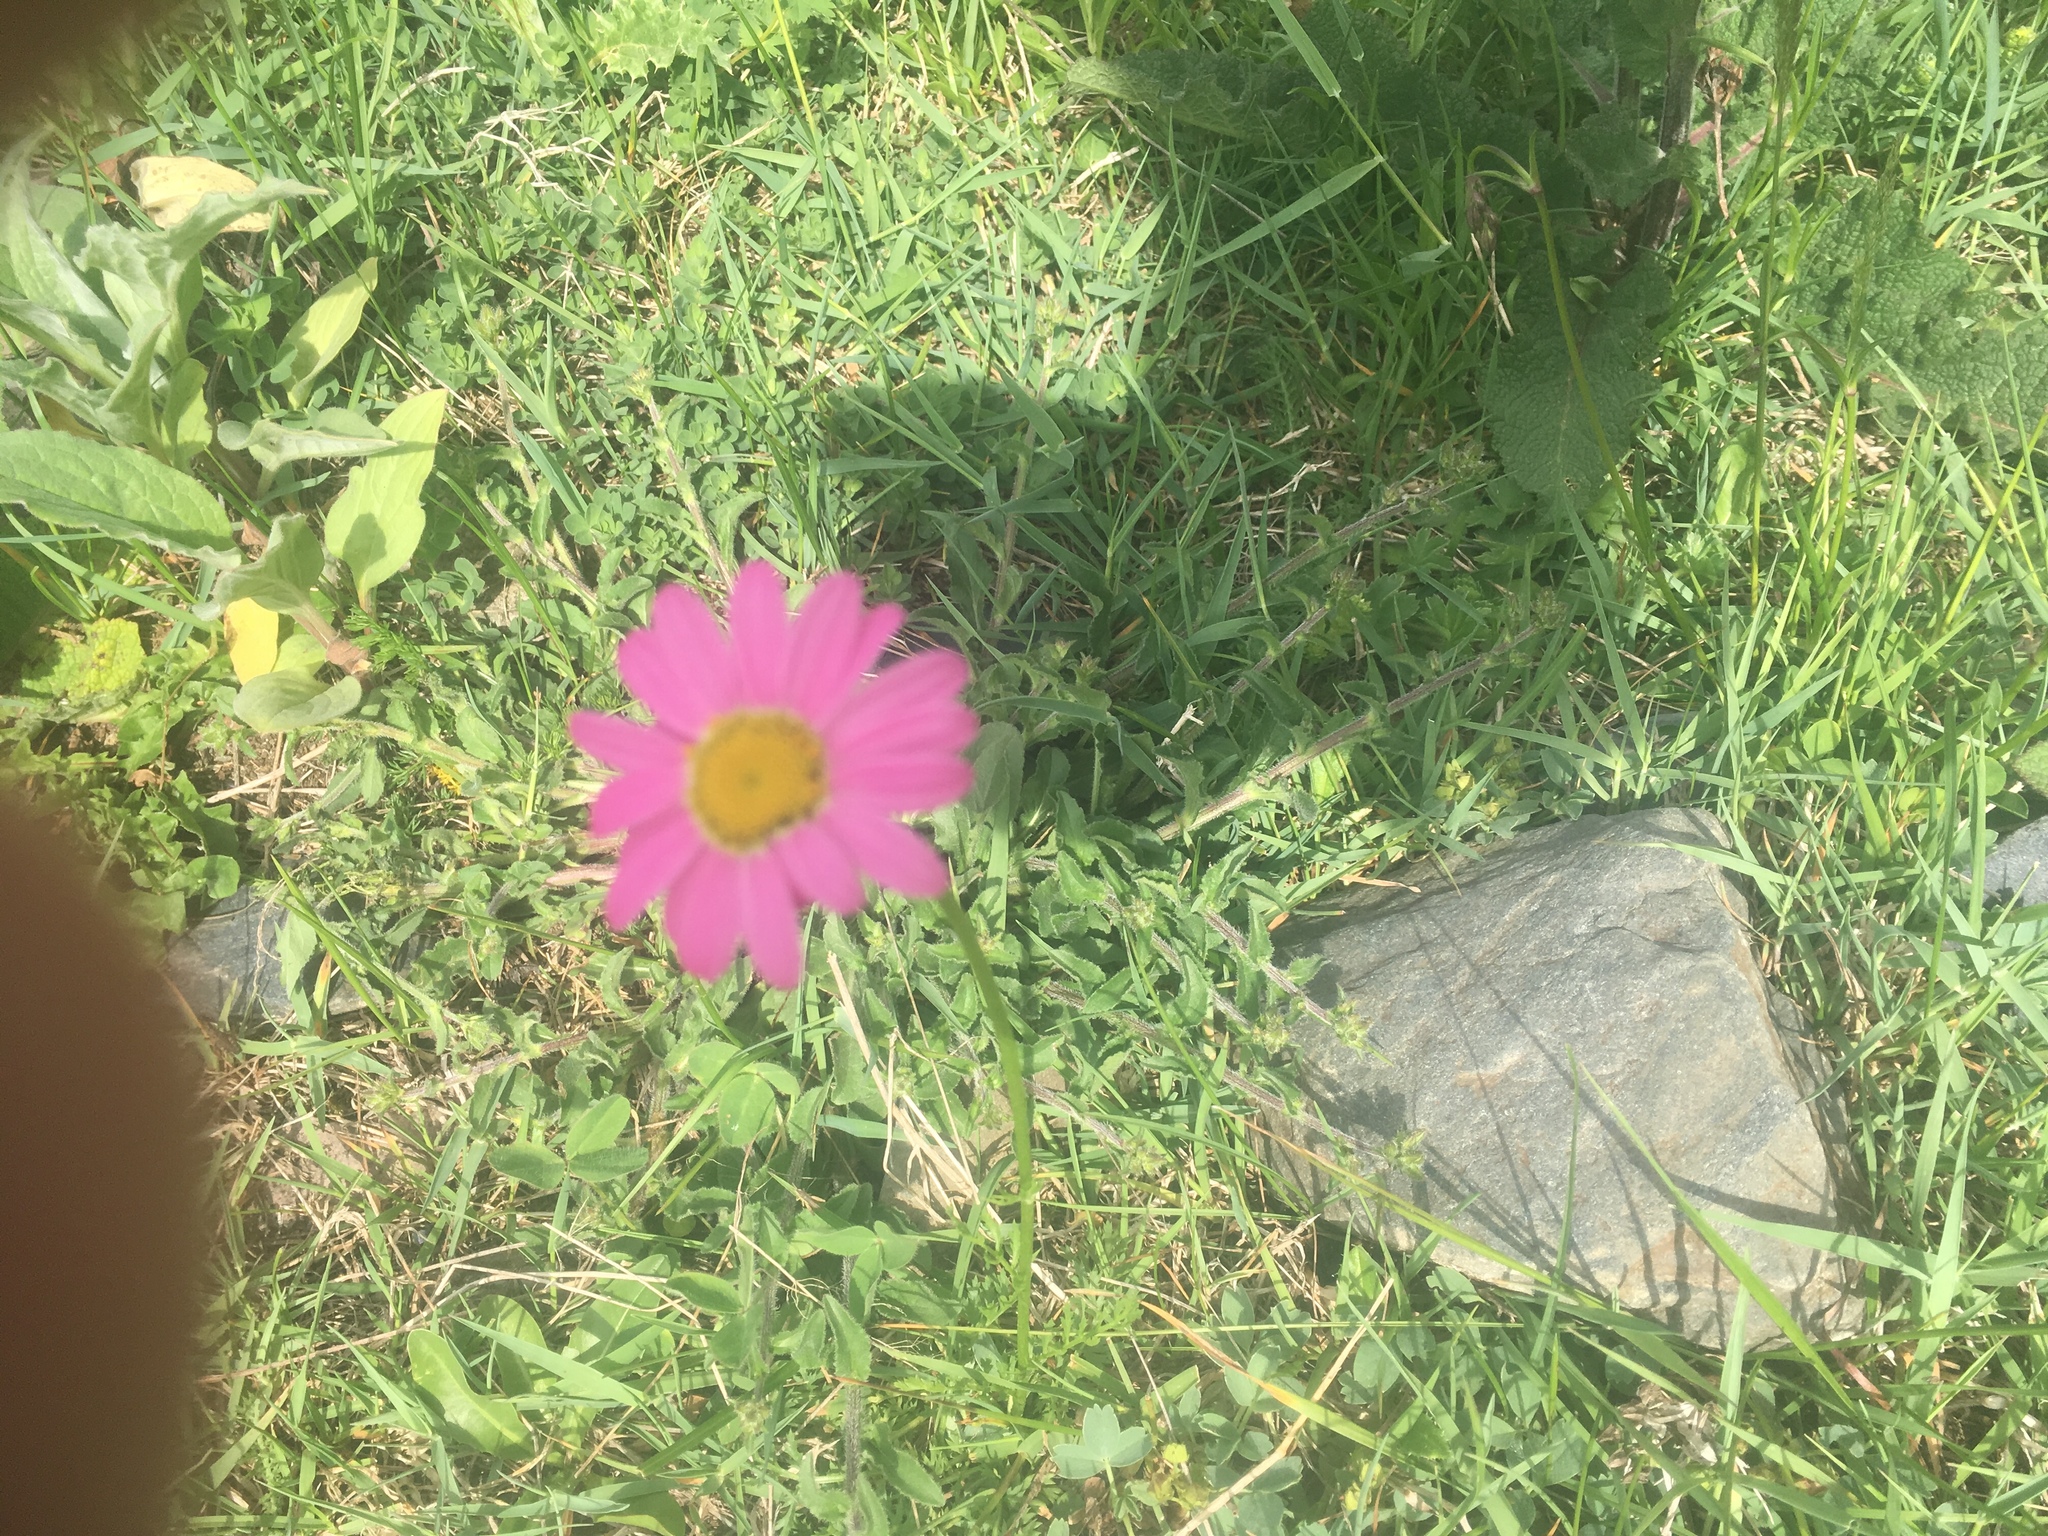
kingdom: Plantae
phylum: Tracheophyta
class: Magnoliopsida
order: Asterales
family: Asteraceae
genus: Tanacetum
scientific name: Tanacetum coccineum
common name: Pyrethum daisy
